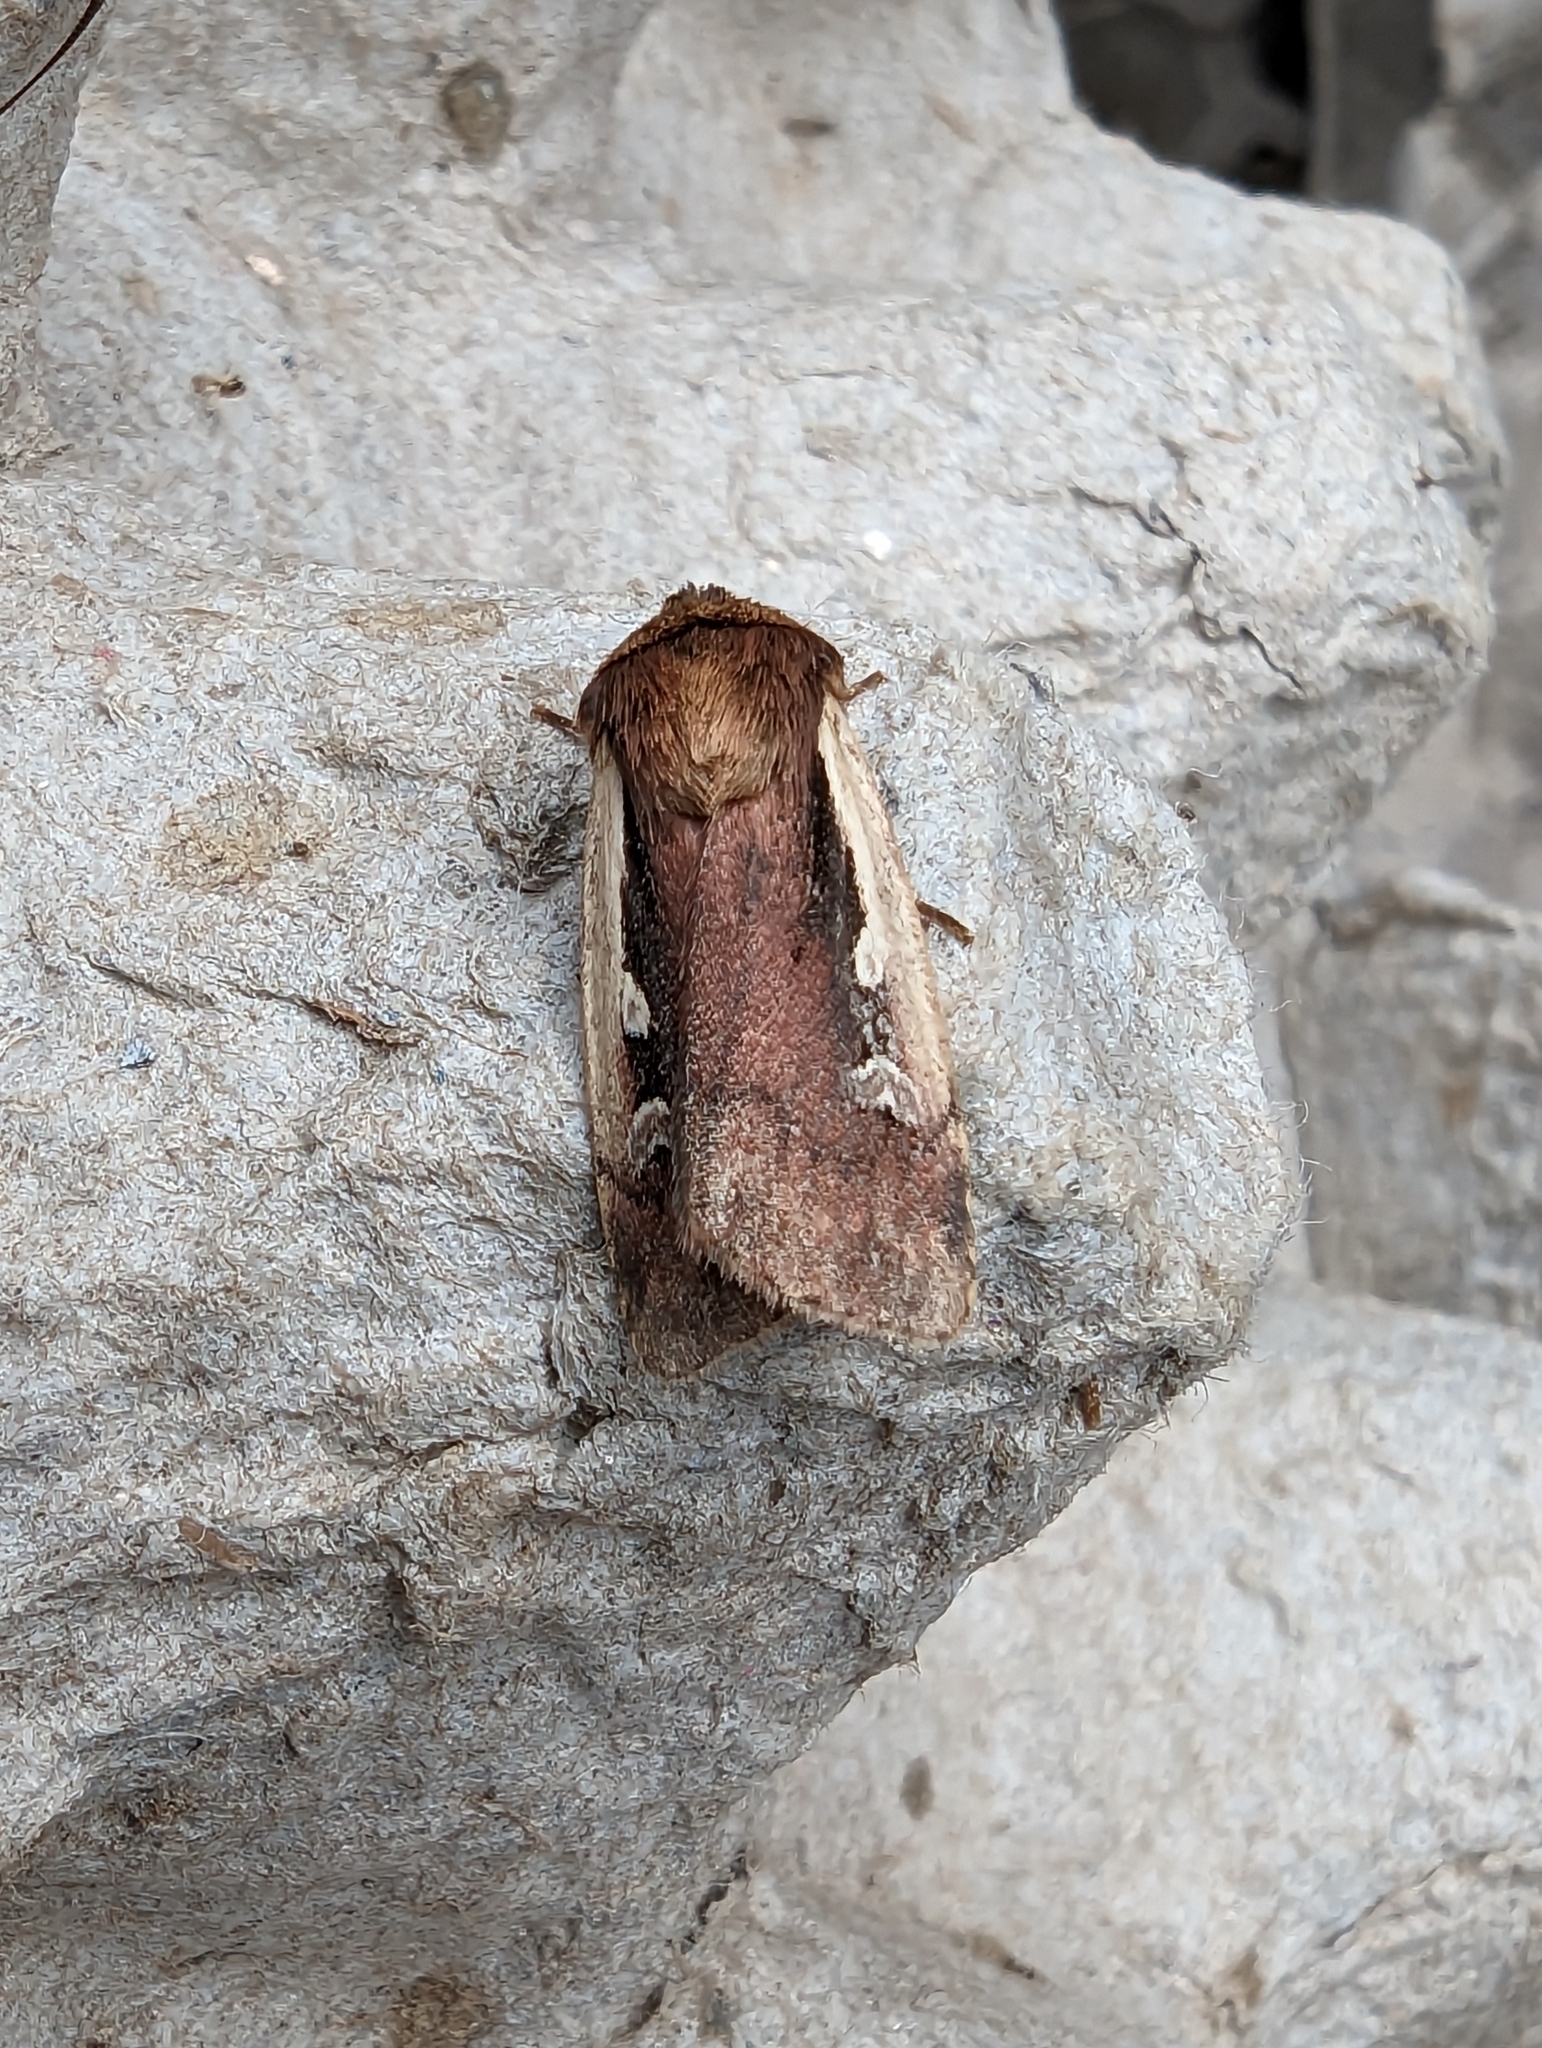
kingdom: Animalia
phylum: Arthropoda
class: Insecta
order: Lepidoptera
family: Noctuidae
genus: Ochropleura
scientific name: Ochropleura plecta
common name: Flame shoulder
